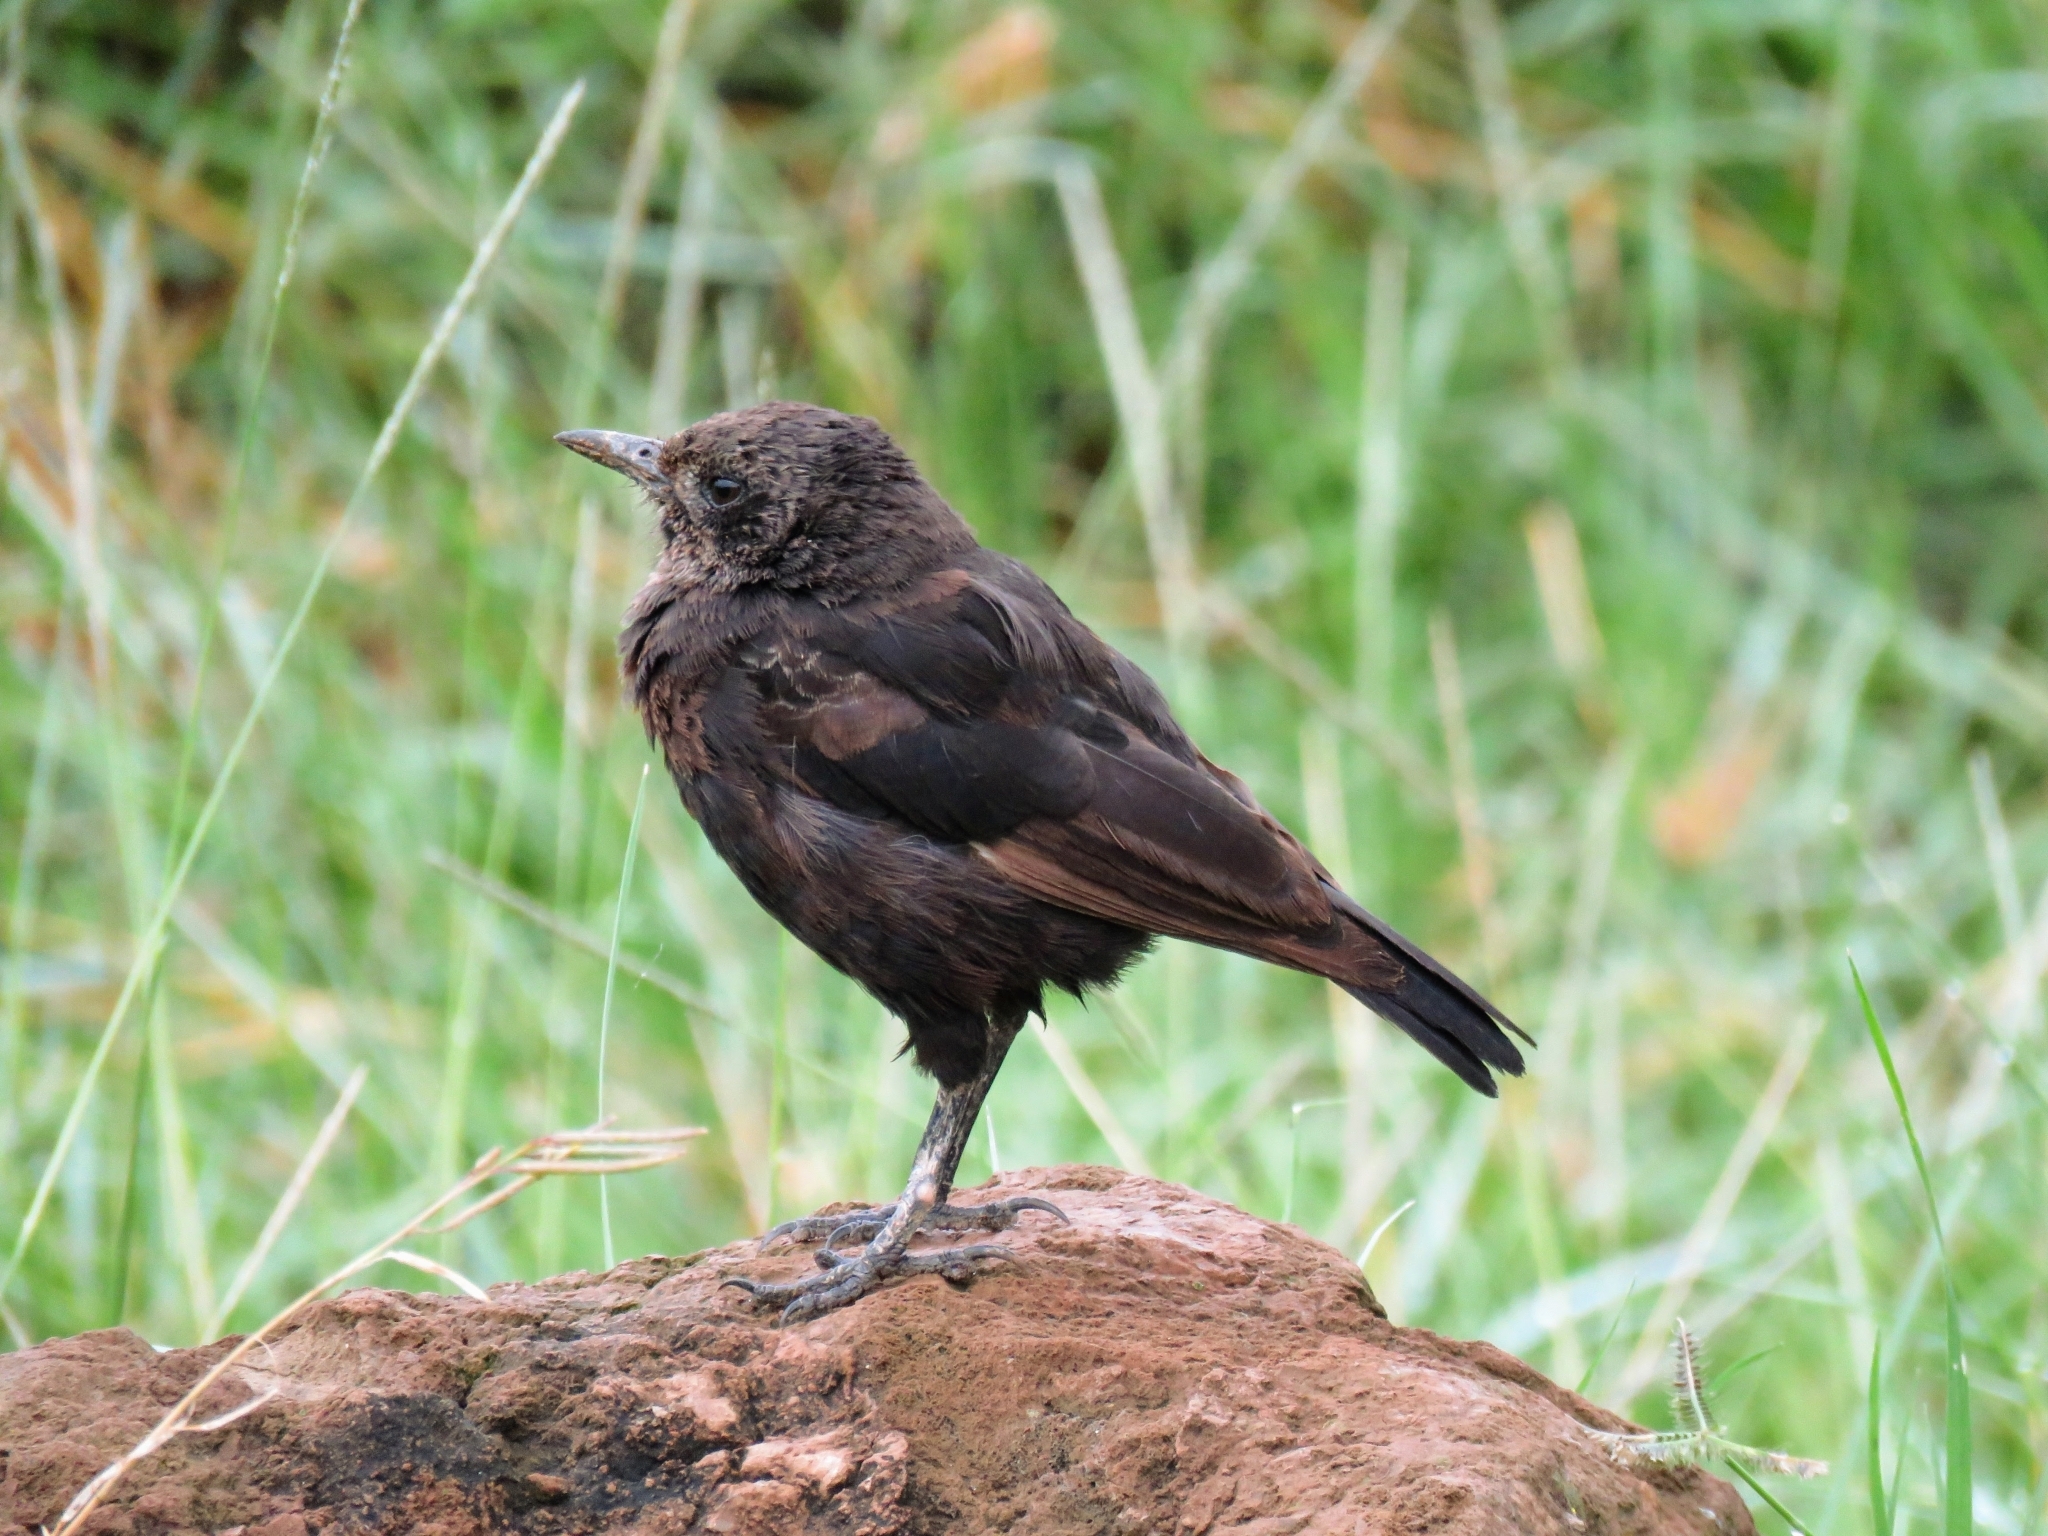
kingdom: Animalia
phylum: Chordata
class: Aves
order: Passeriformes
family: Muscicapidae
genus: Myrmecocichla
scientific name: Myrmecocichla aethiops
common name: Anteater chat
